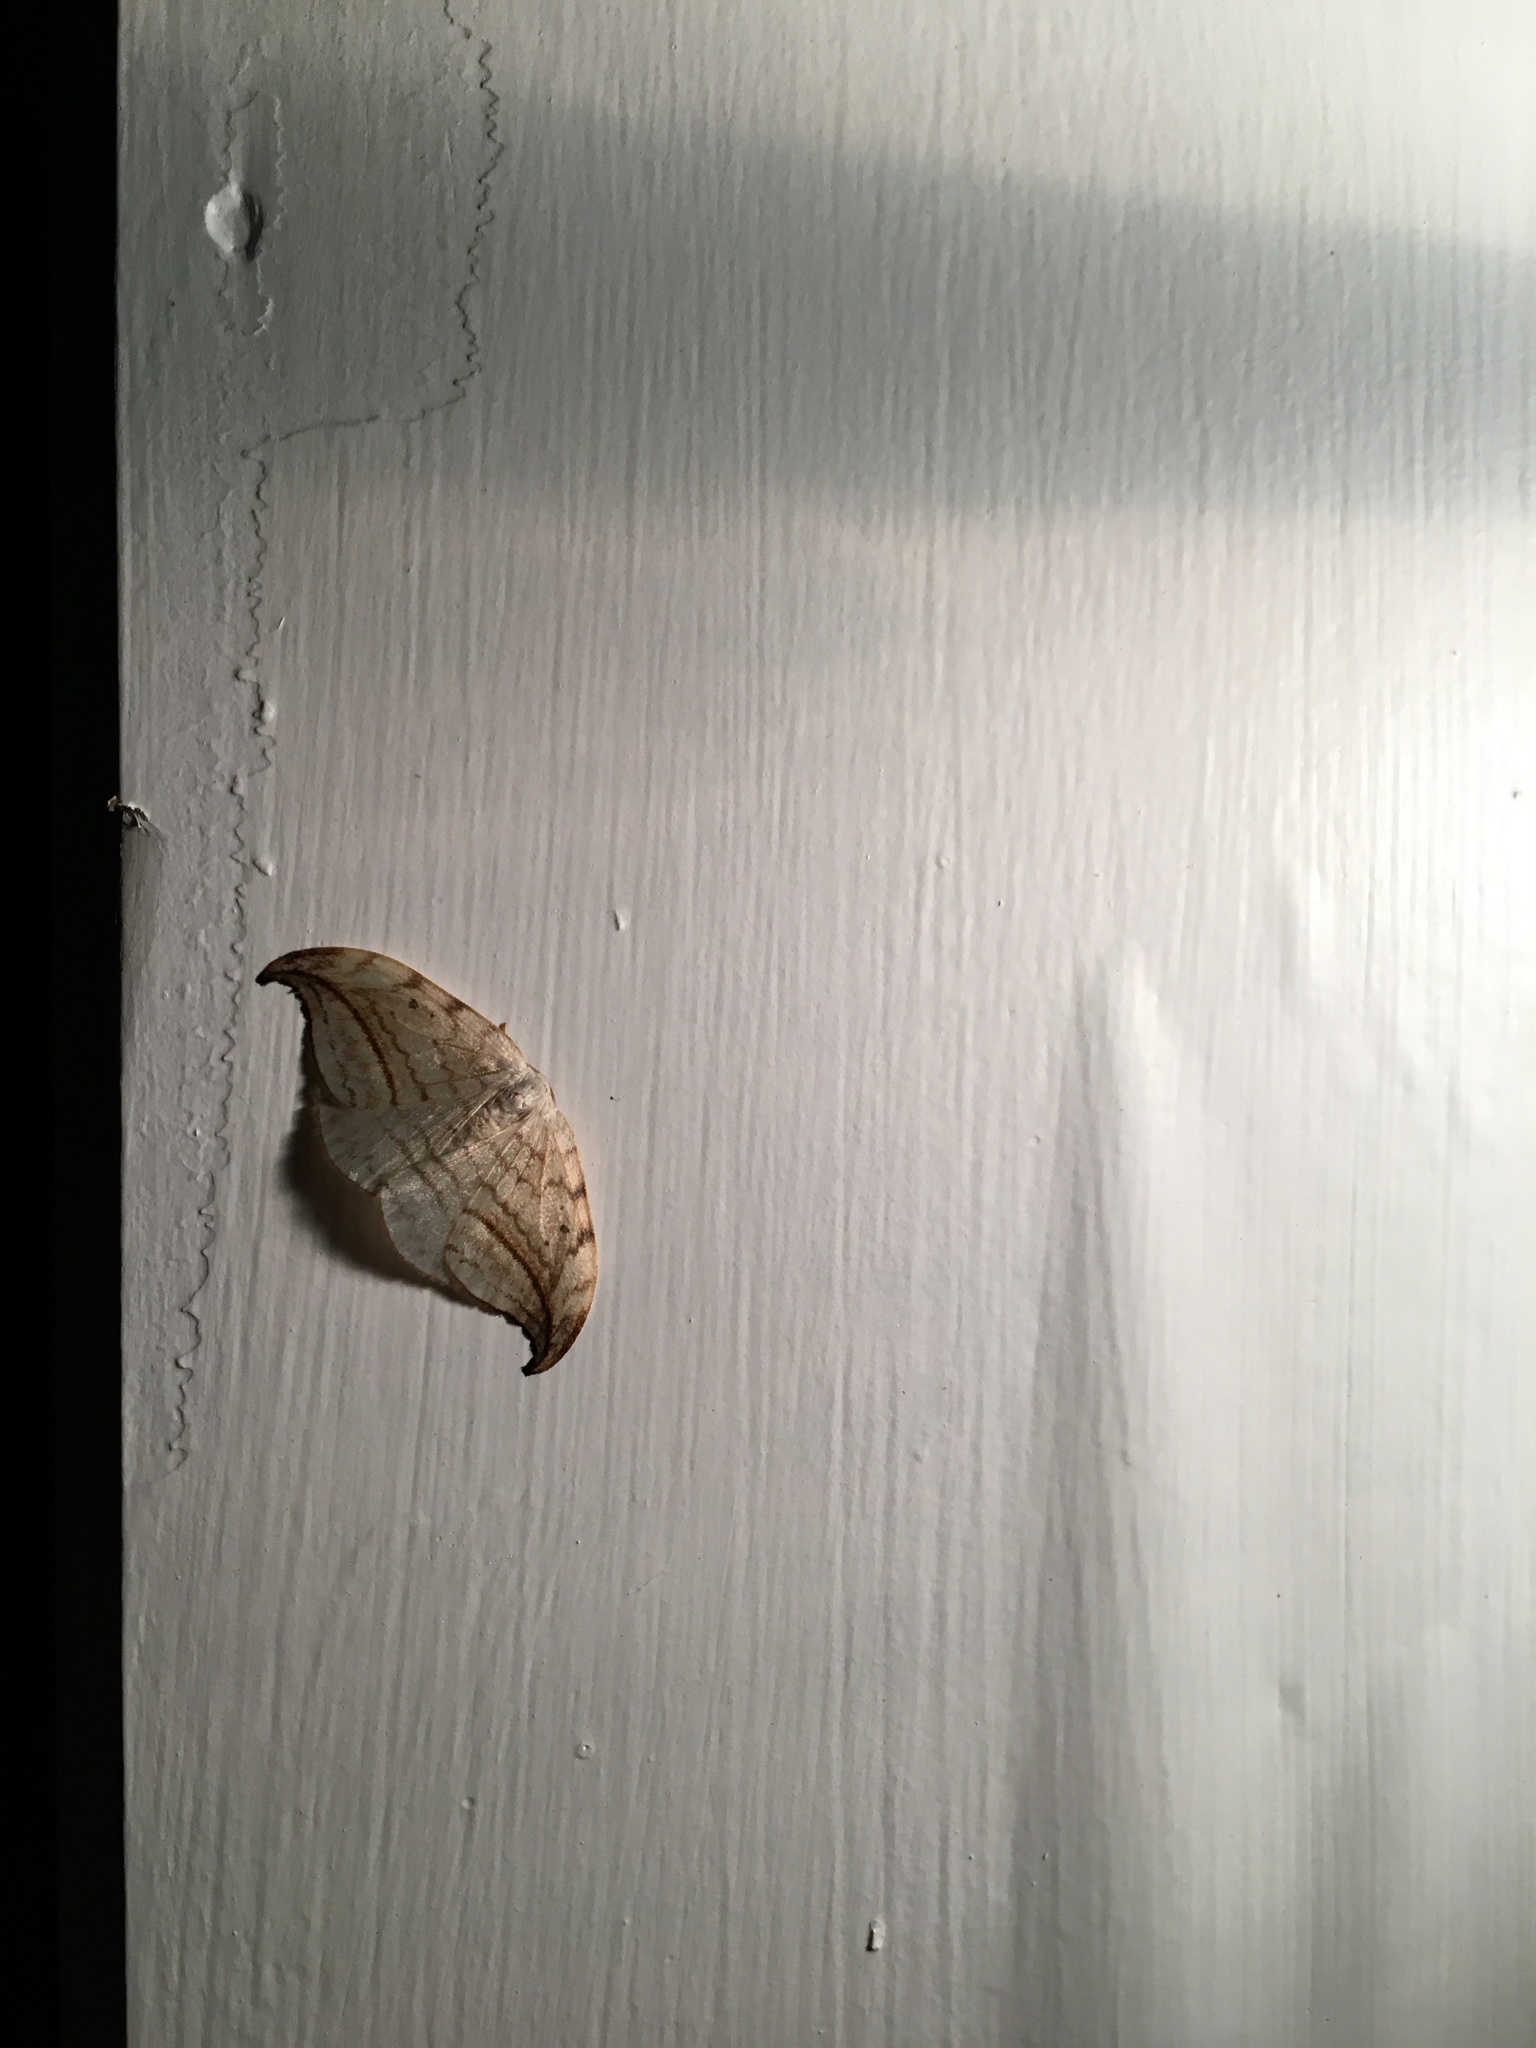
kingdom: Animalia
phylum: Arthropoda
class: Insecta
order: Lepidoptera
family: Drepanidae
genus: Drepana
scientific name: Drepana arcuata
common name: Arched hooktip moth
